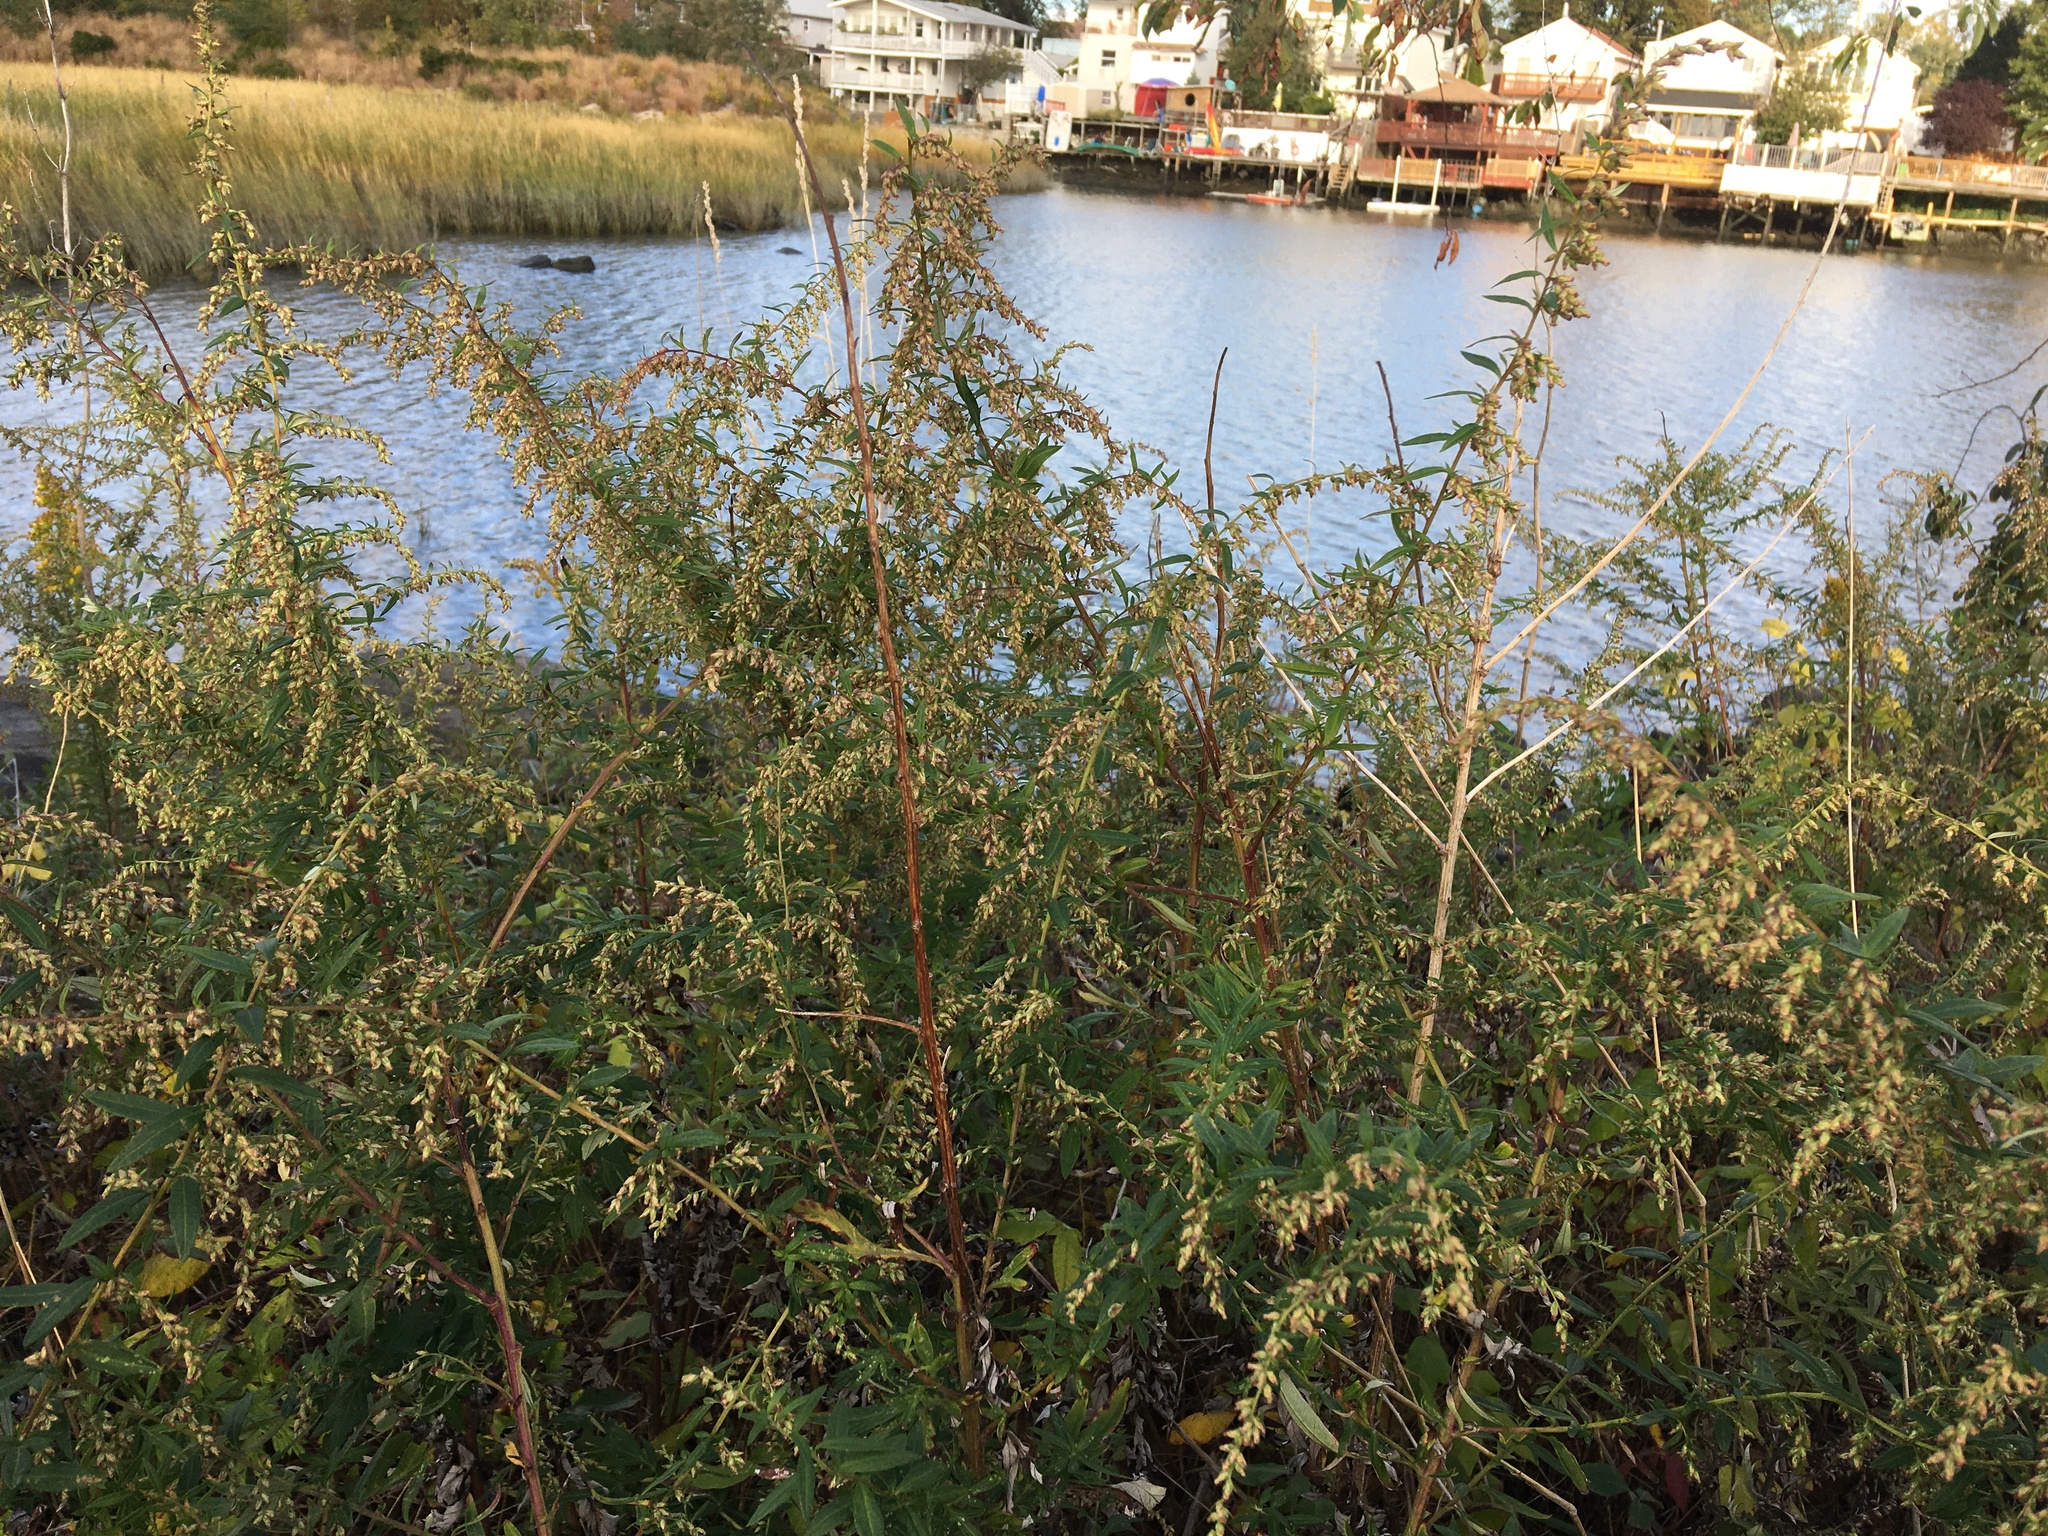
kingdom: Plantae
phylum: Tracheophyta
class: Magnoliopsida
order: Asterales
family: Asteraceae
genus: Artemisia
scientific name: Artemisia vulgaris
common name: Mugwort
